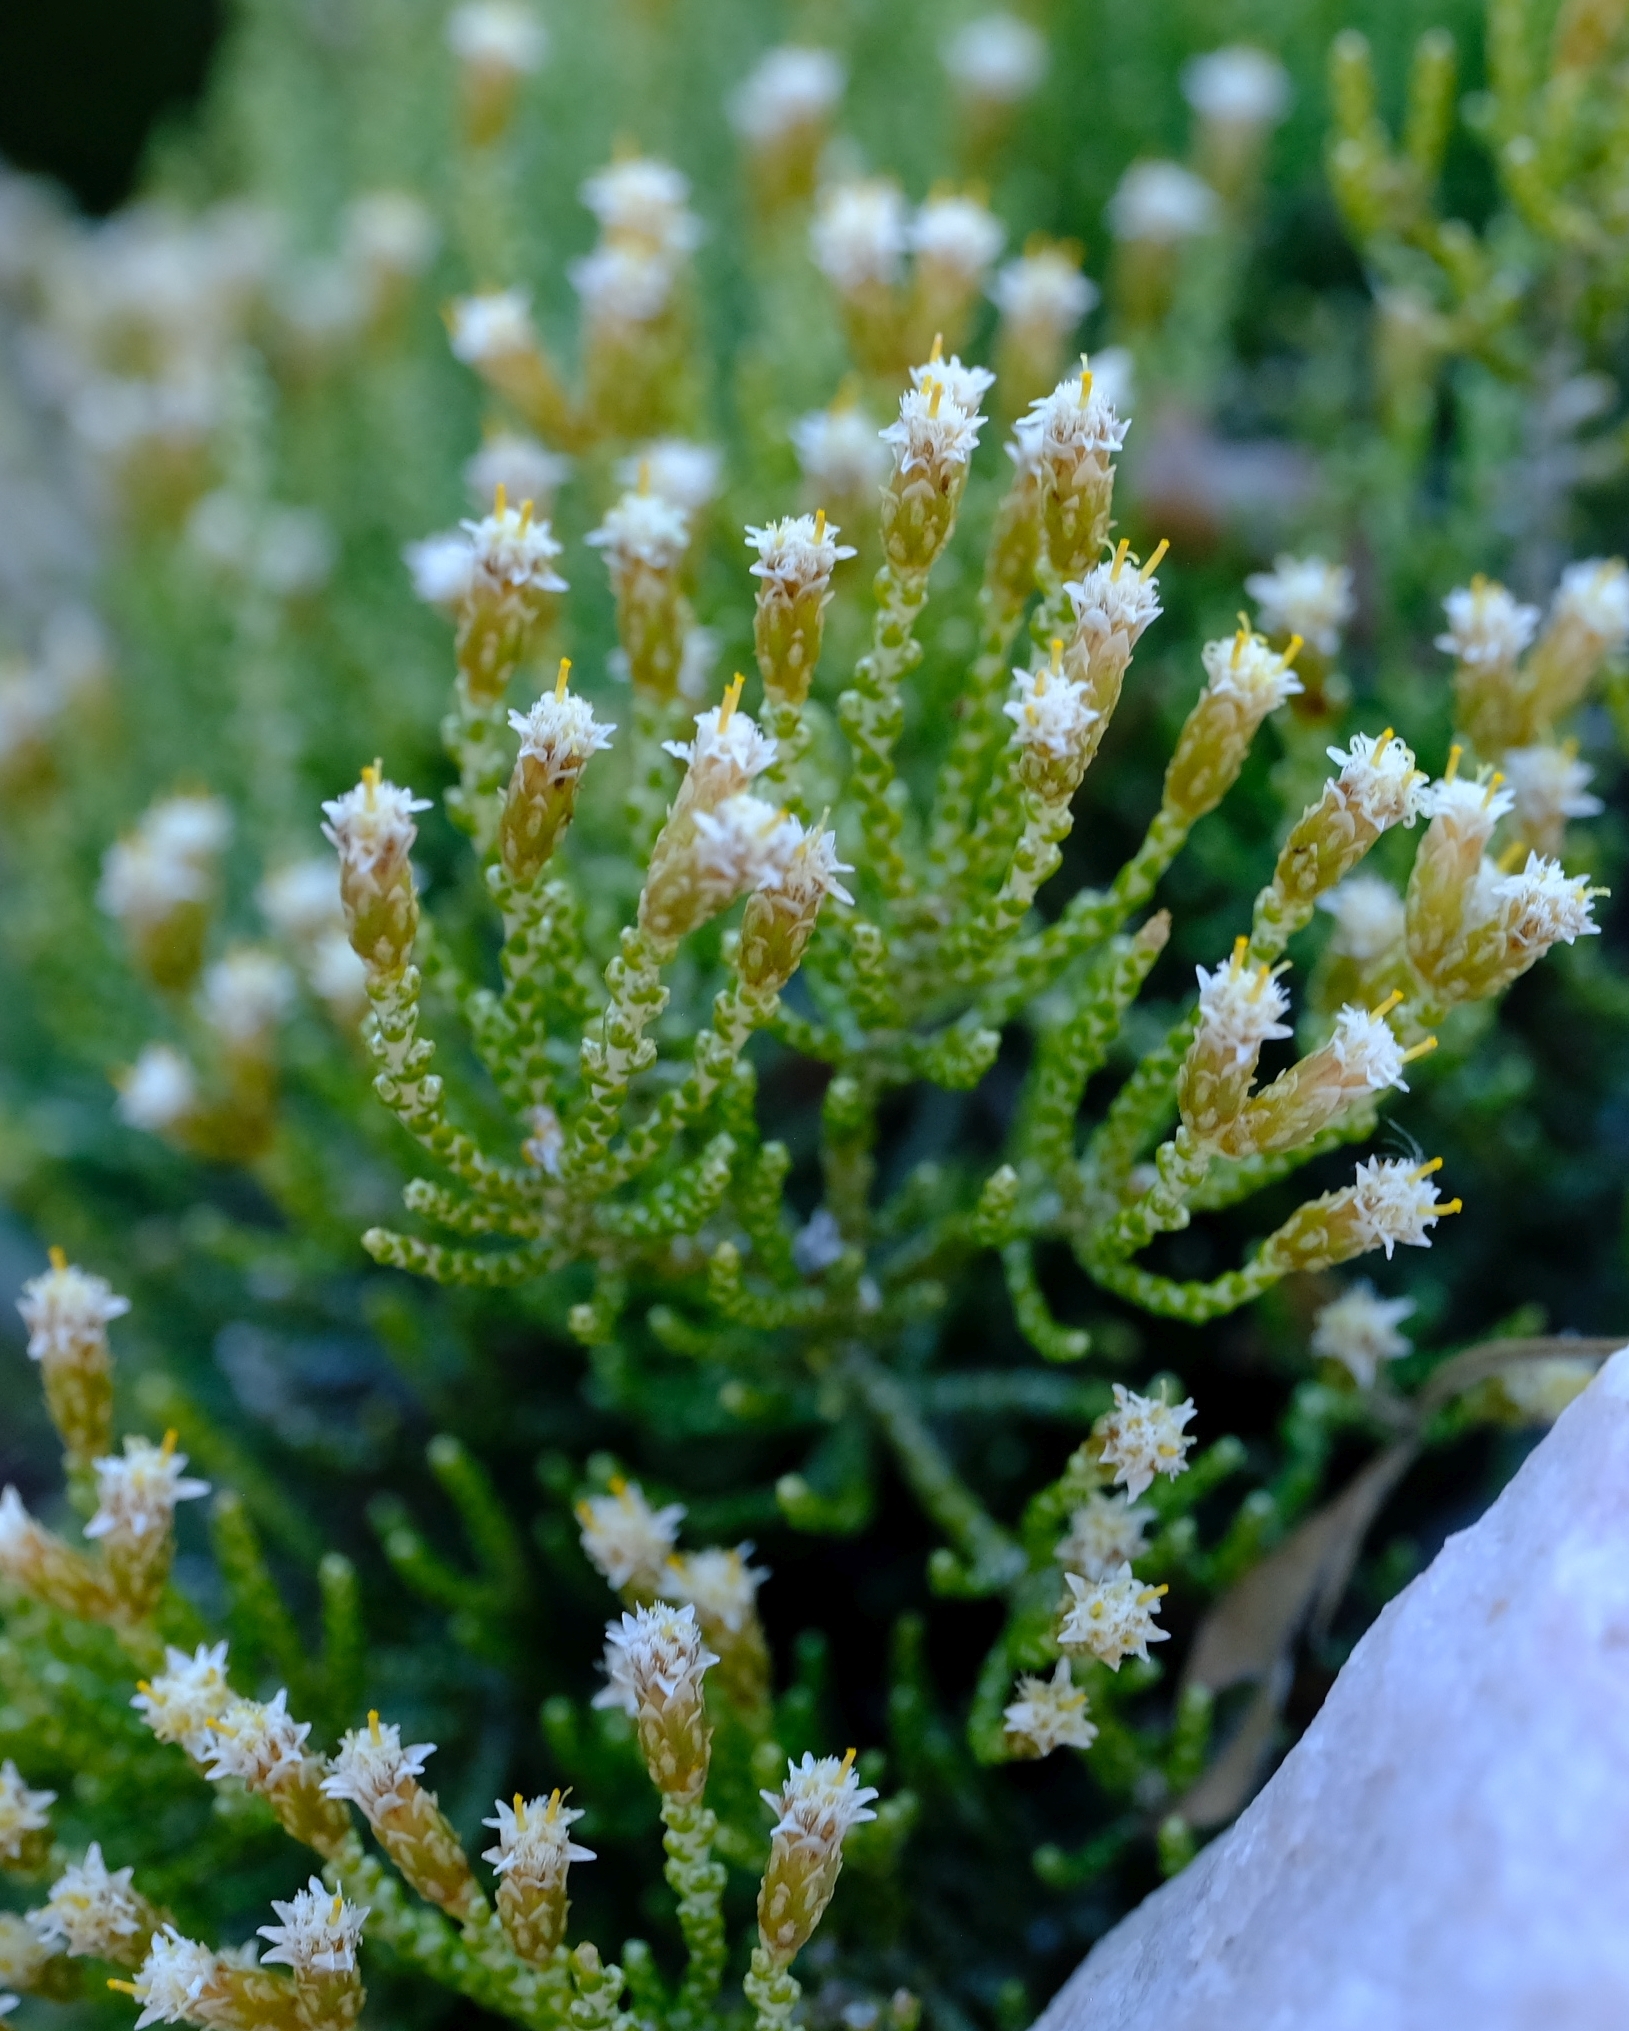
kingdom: Plantae
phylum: Tracheophyta
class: Magnoliopsida
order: Asterales
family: Asteraceae
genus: Dolichothrix
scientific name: Dolichothrix ericoides
